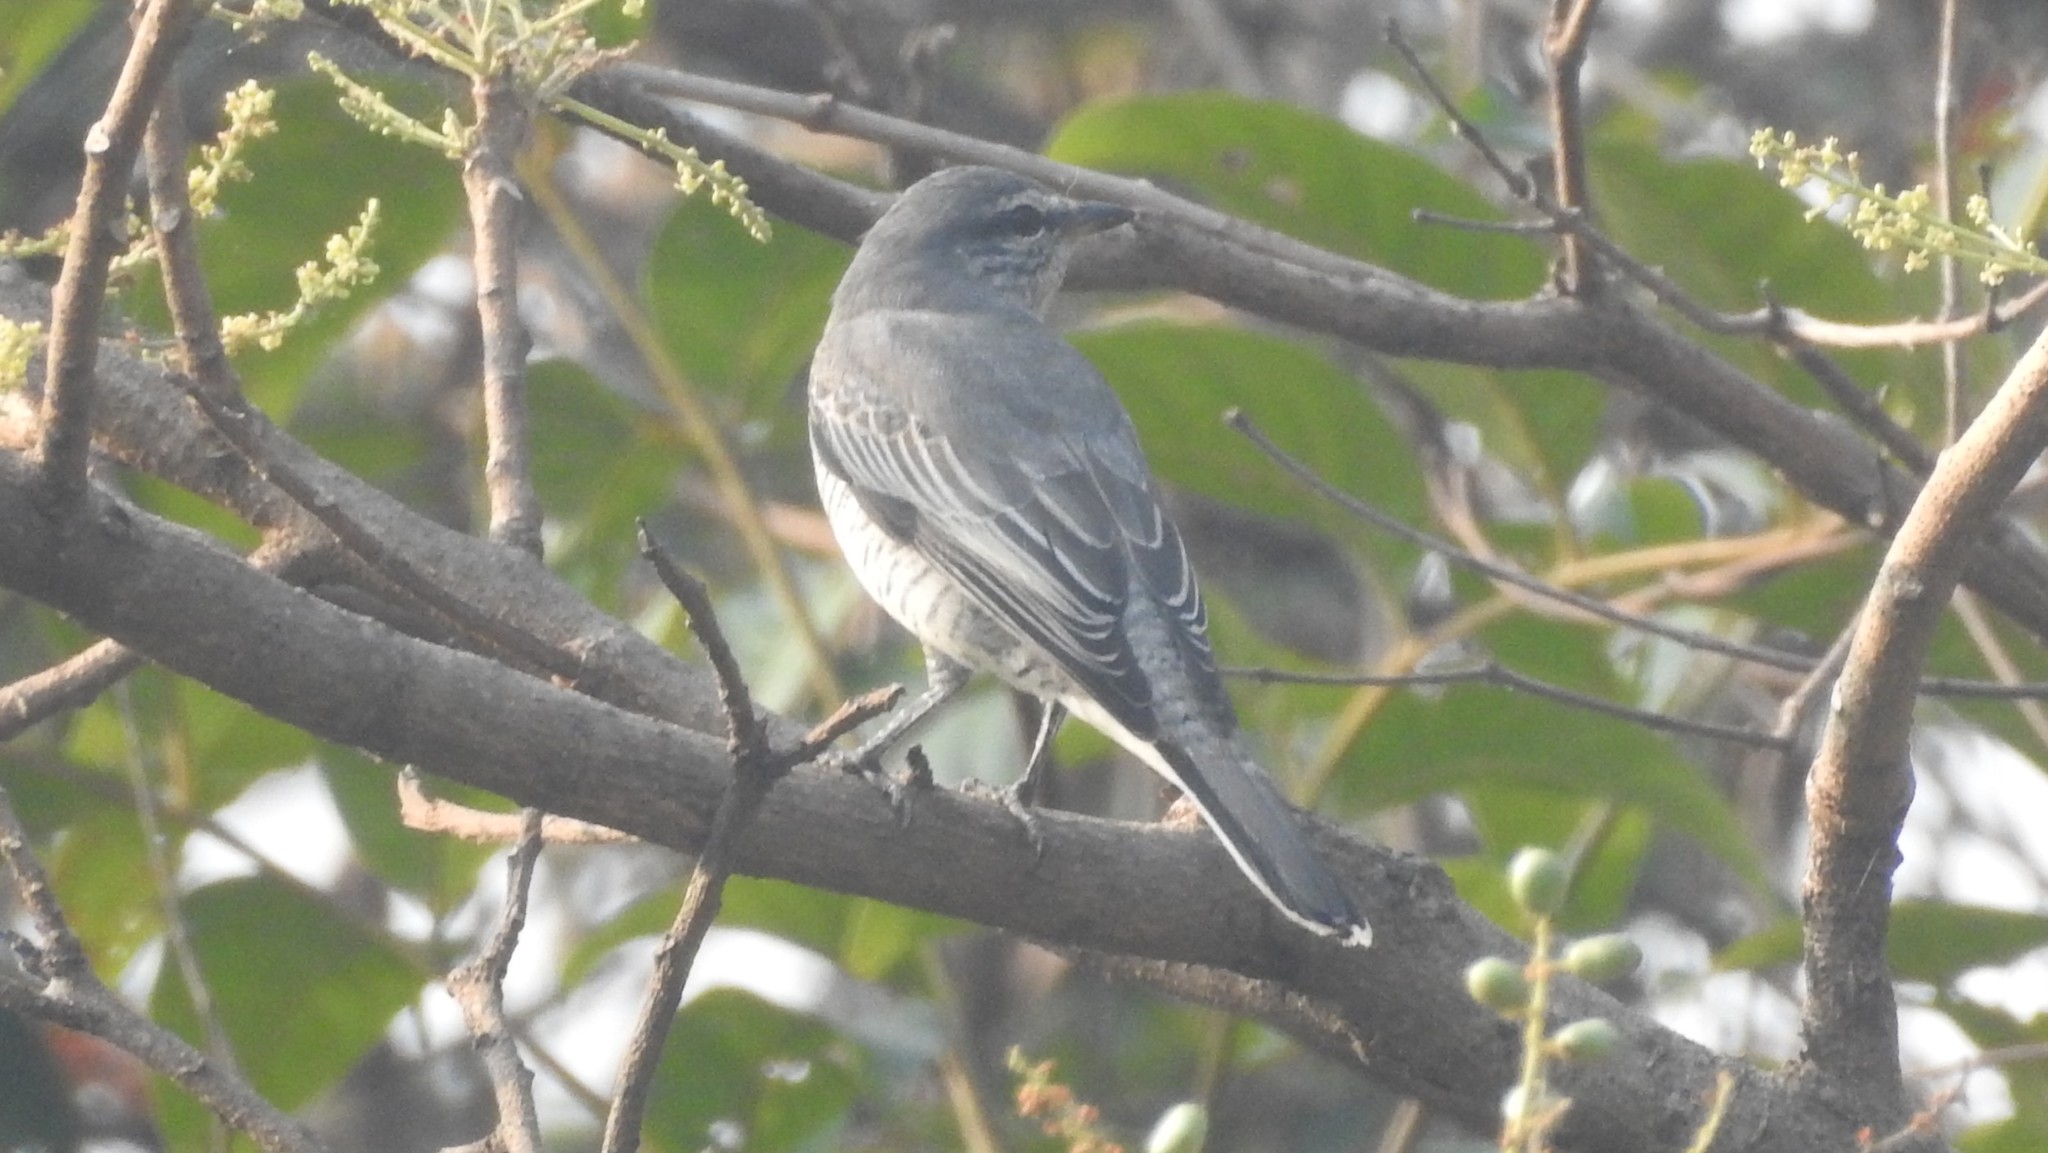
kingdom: Animalia
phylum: Chordata
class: Aves
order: Passeriformes
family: Campephagidae
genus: Coracina
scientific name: Coracina melanoptera
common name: Black-headed cuckooshrike
